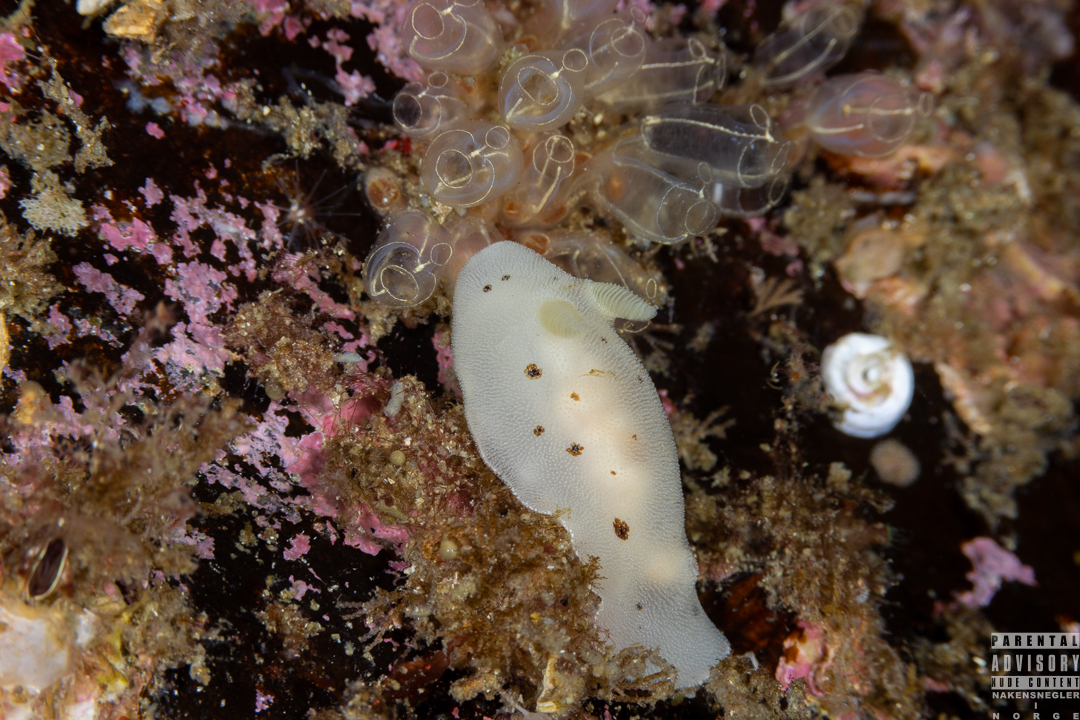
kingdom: Animalia
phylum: Mollusca
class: Gastropoda
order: Nudibranchia
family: Discodorididae
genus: Jorunna
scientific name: Jorunna artsdatabankia
